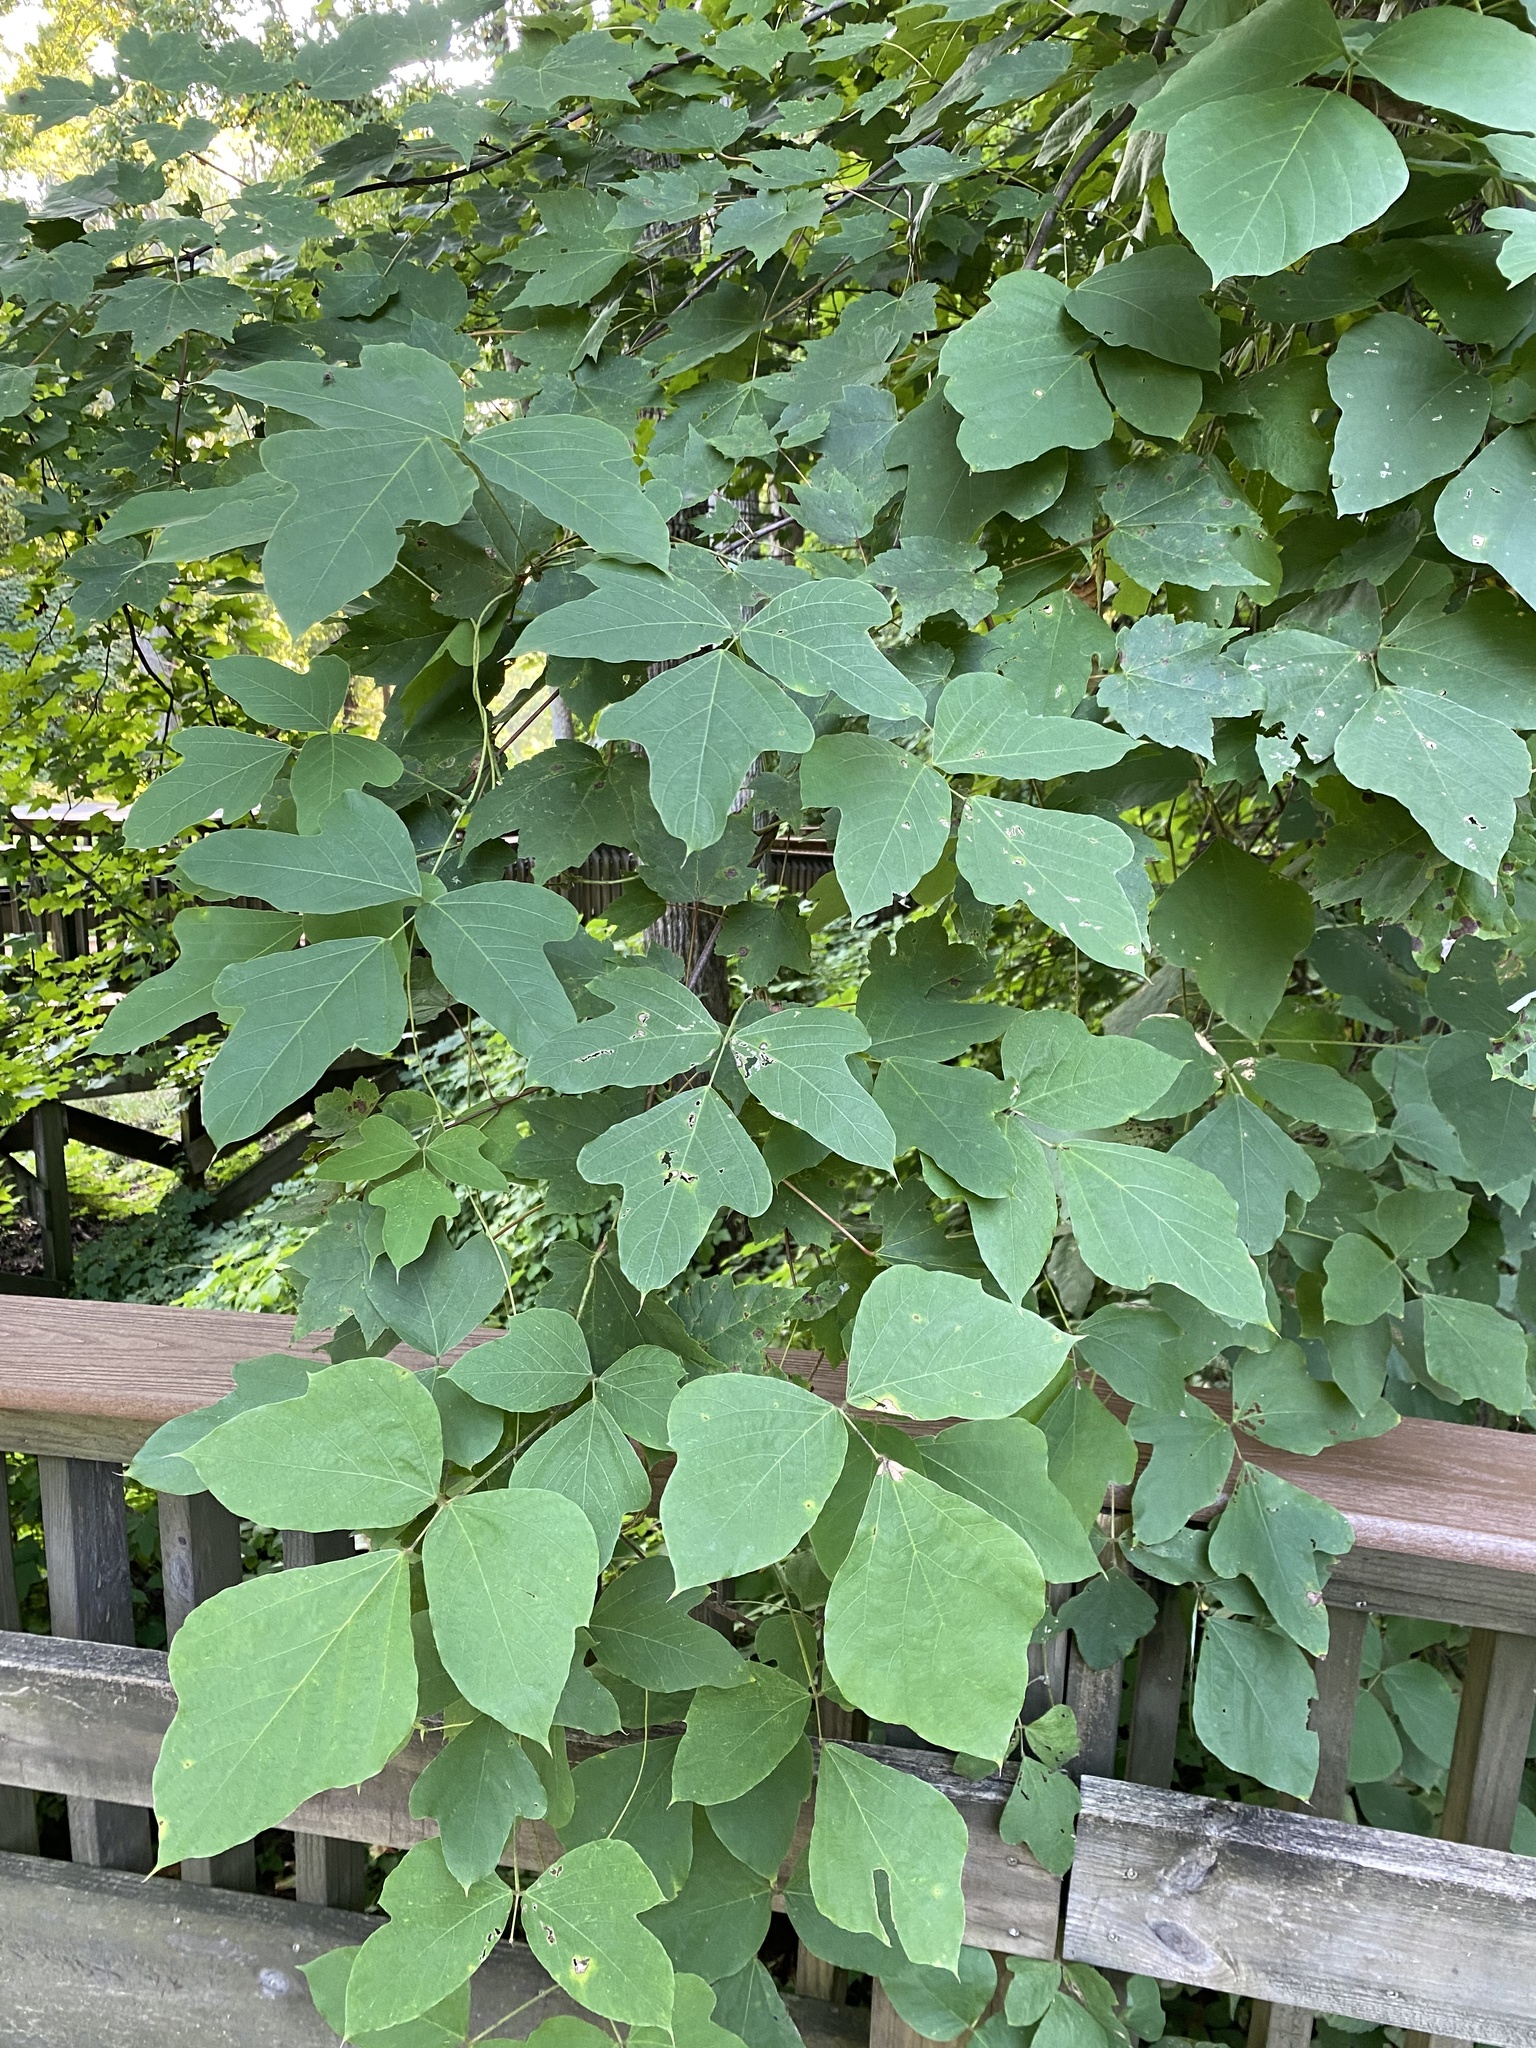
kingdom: Plantae
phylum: Tracheophyta
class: Magnoliopsida
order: Fabales
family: Fabaceae
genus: Pueraria
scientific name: Pueraria montana
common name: Kudzu
